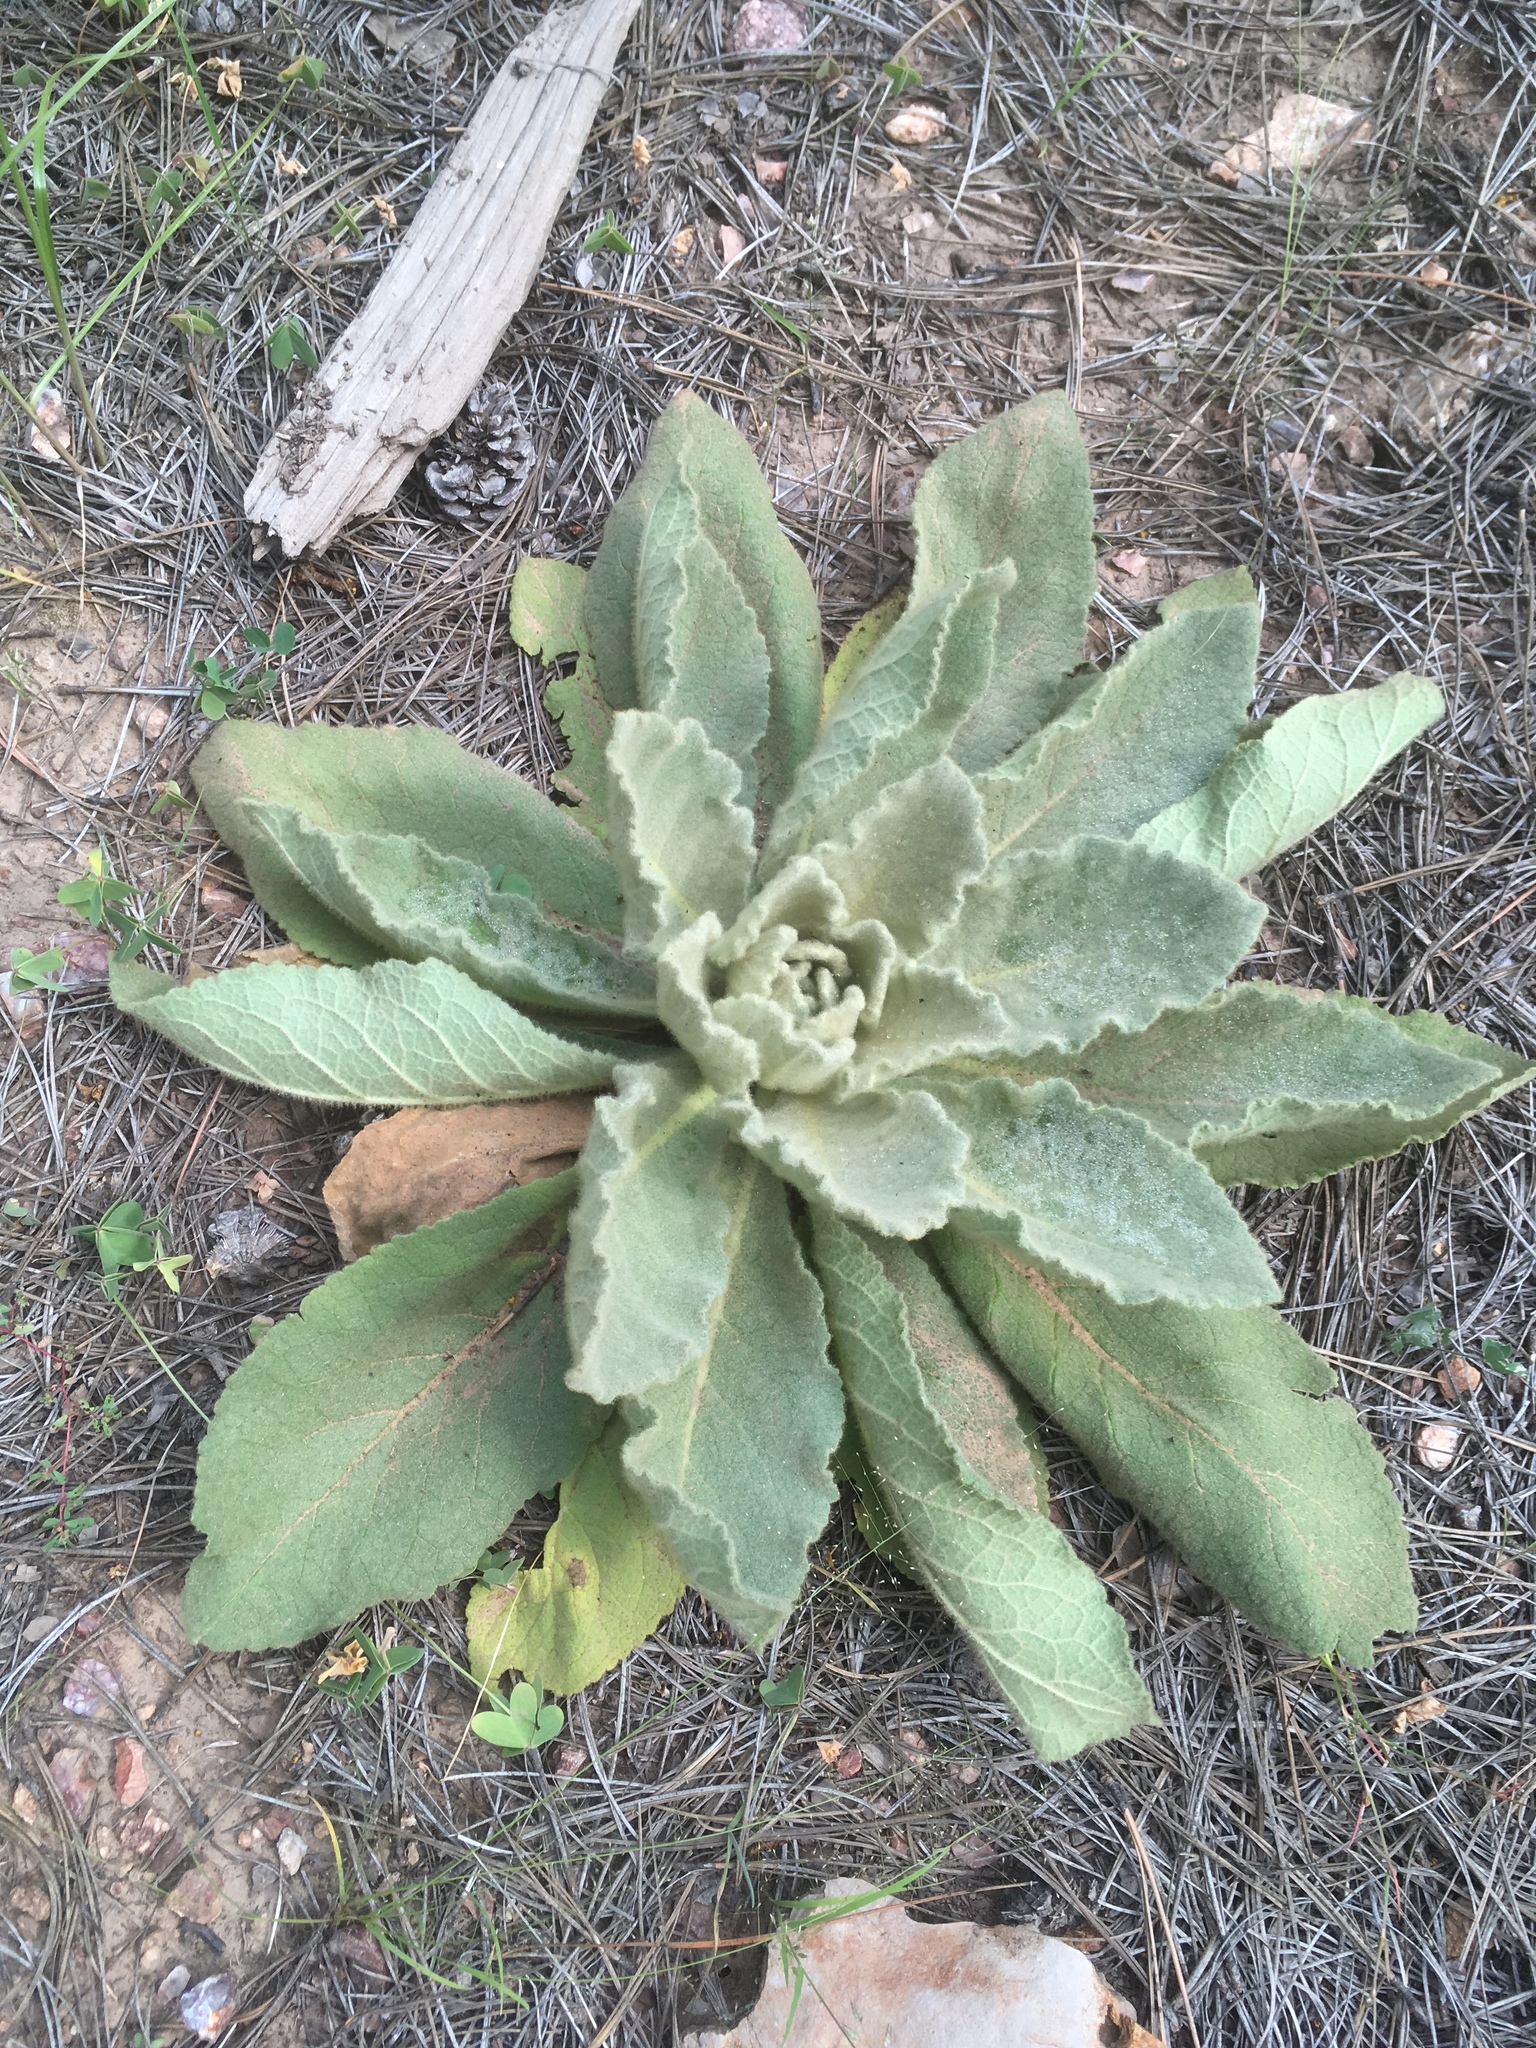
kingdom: Plantae
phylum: Tracheophyta
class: Magnoliopsida
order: Lamiales
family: Scrophulariaceae
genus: Verbascum
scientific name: Verbascum thapsus
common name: Common mullein
